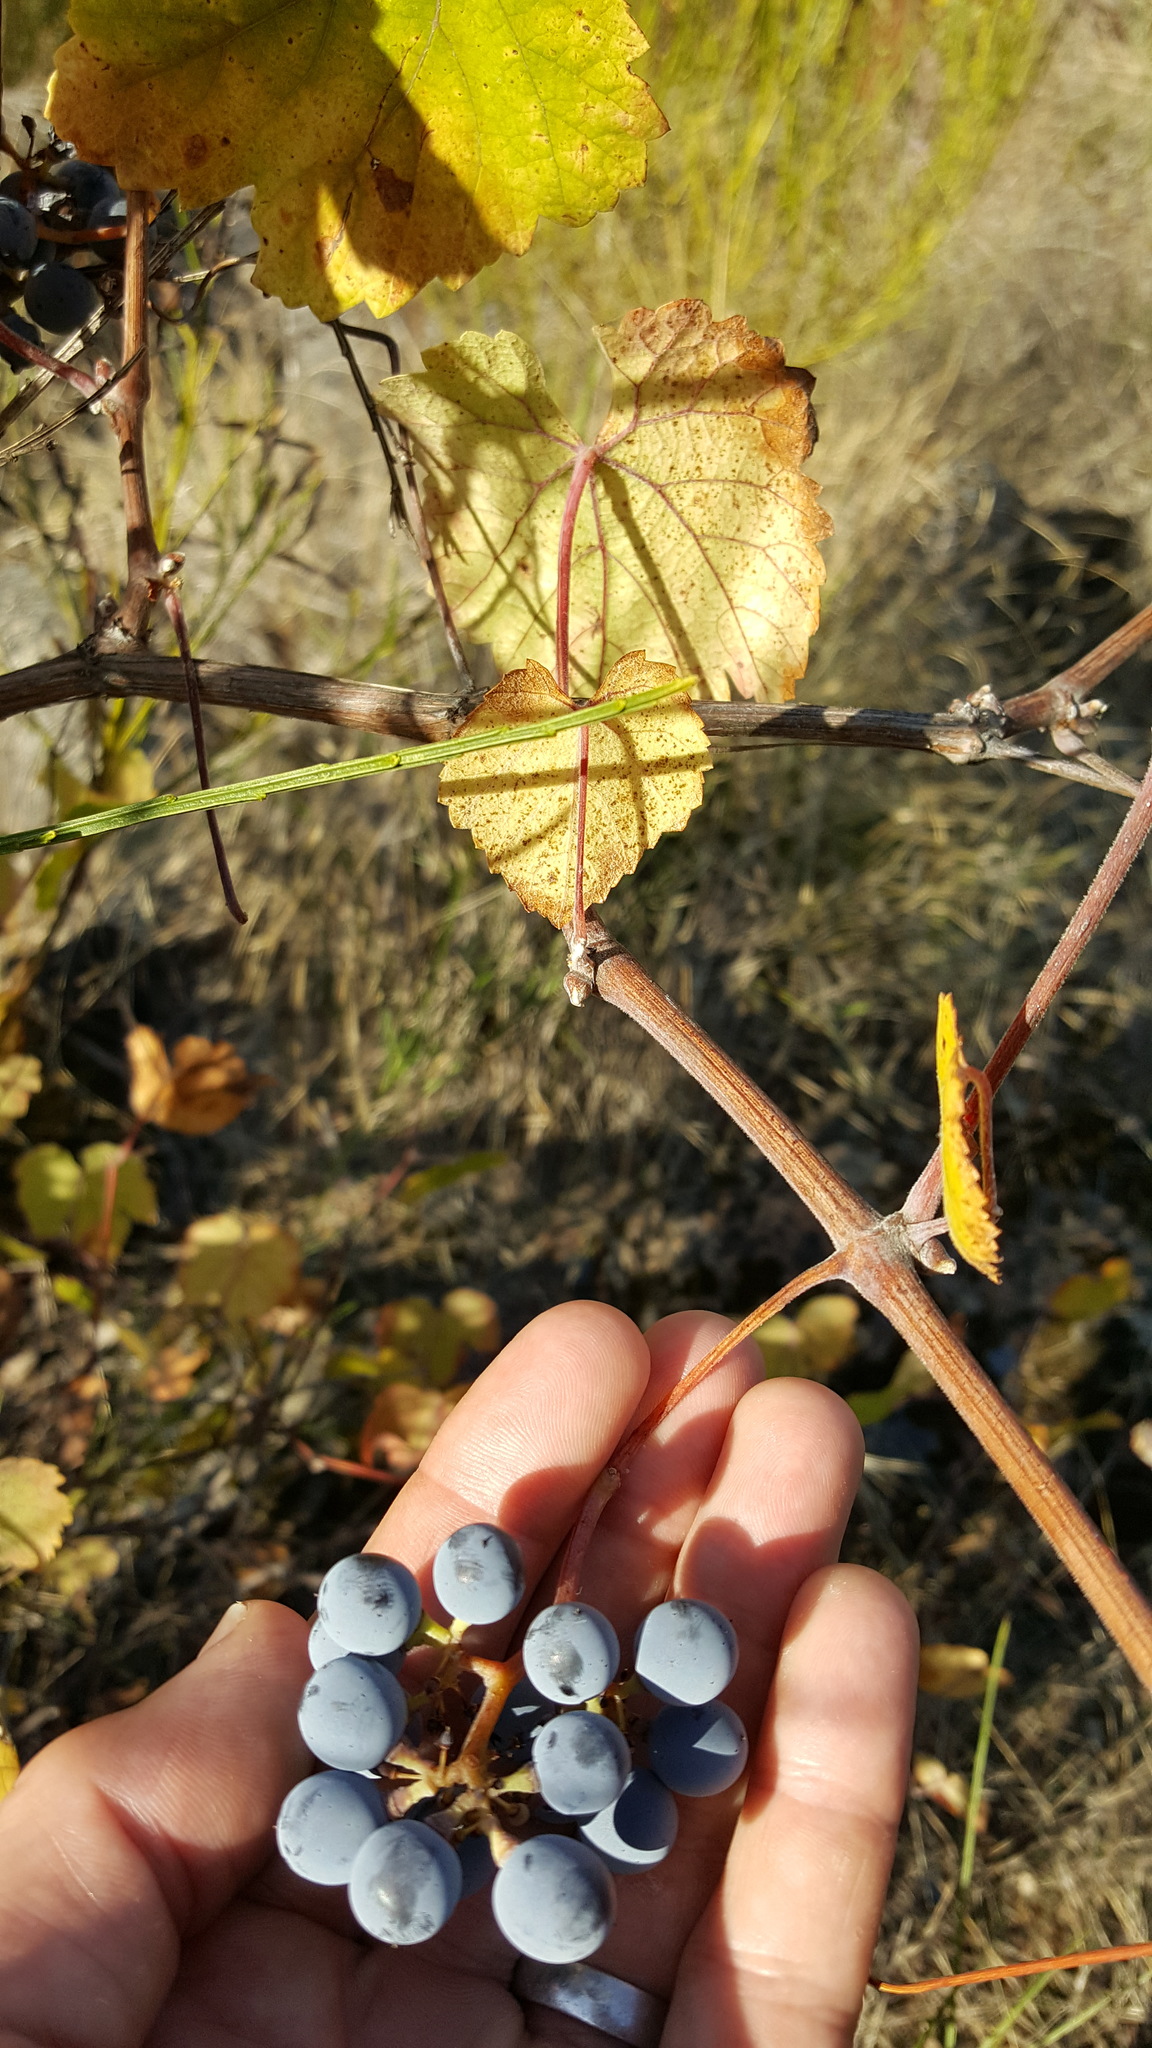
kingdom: Plantae
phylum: Tracheophyta
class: Magnoliopsida
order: Vitales
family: Vitaceae
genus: Vitis
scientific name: Vitis californica
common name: California wild grape
